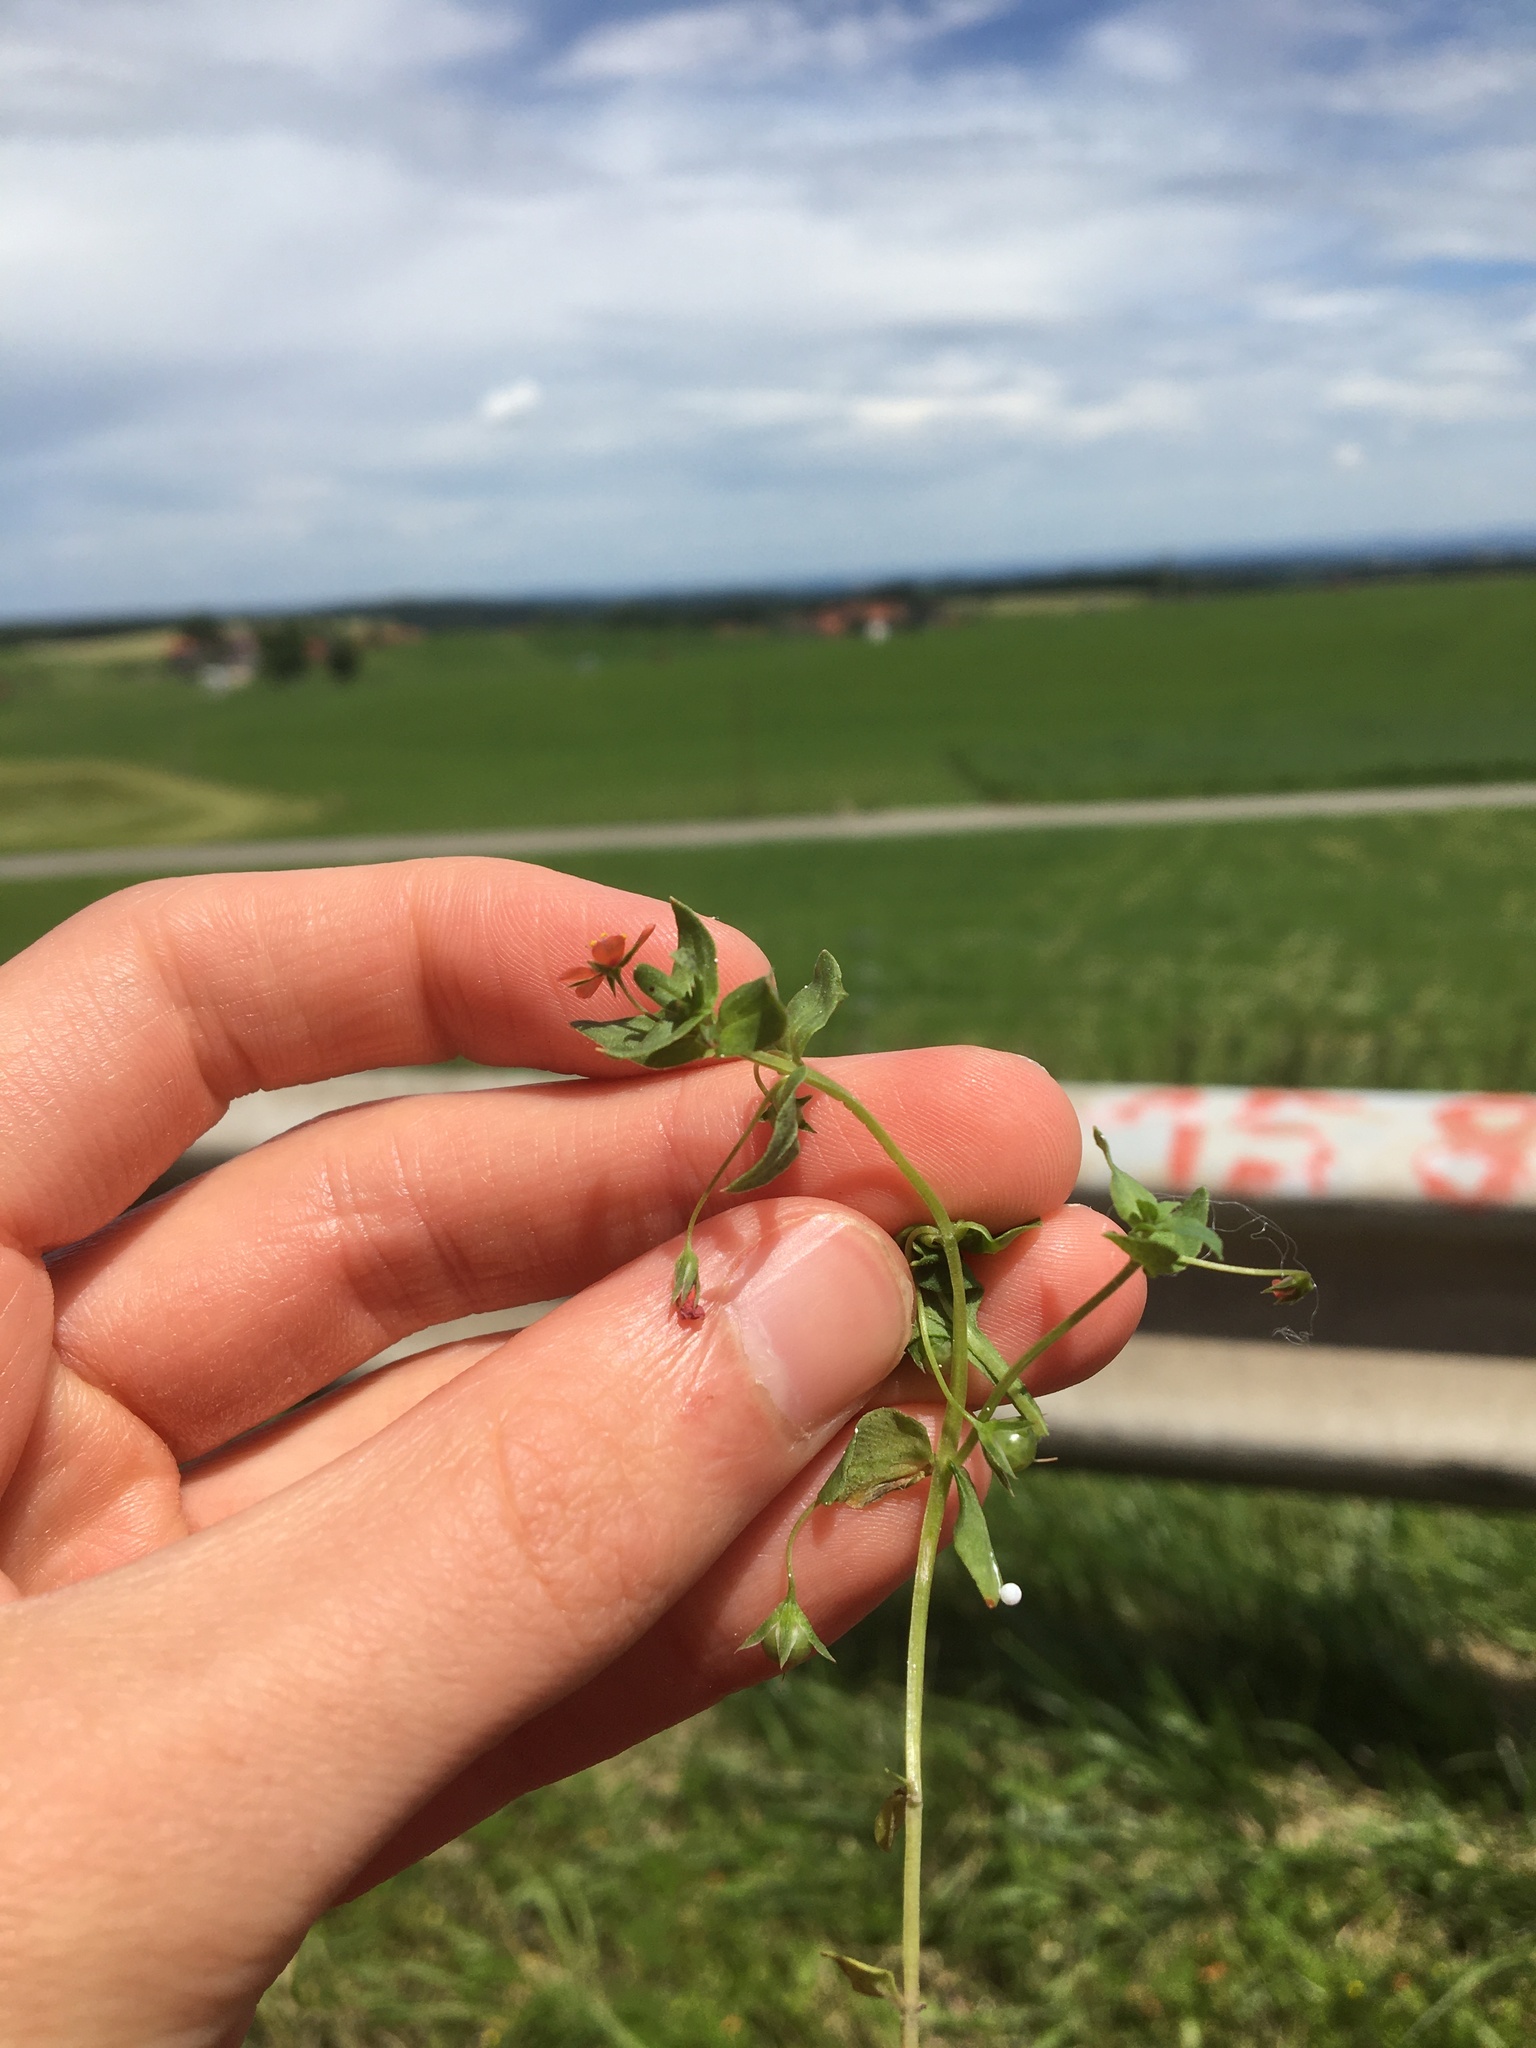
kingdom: Plantae
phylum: Tracheophyta
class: Magnoliopsida
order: Ericales
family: Primulaceae
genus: Lysimachia
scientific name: Lysimachia arvensis
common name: Scarlet pimpernel
